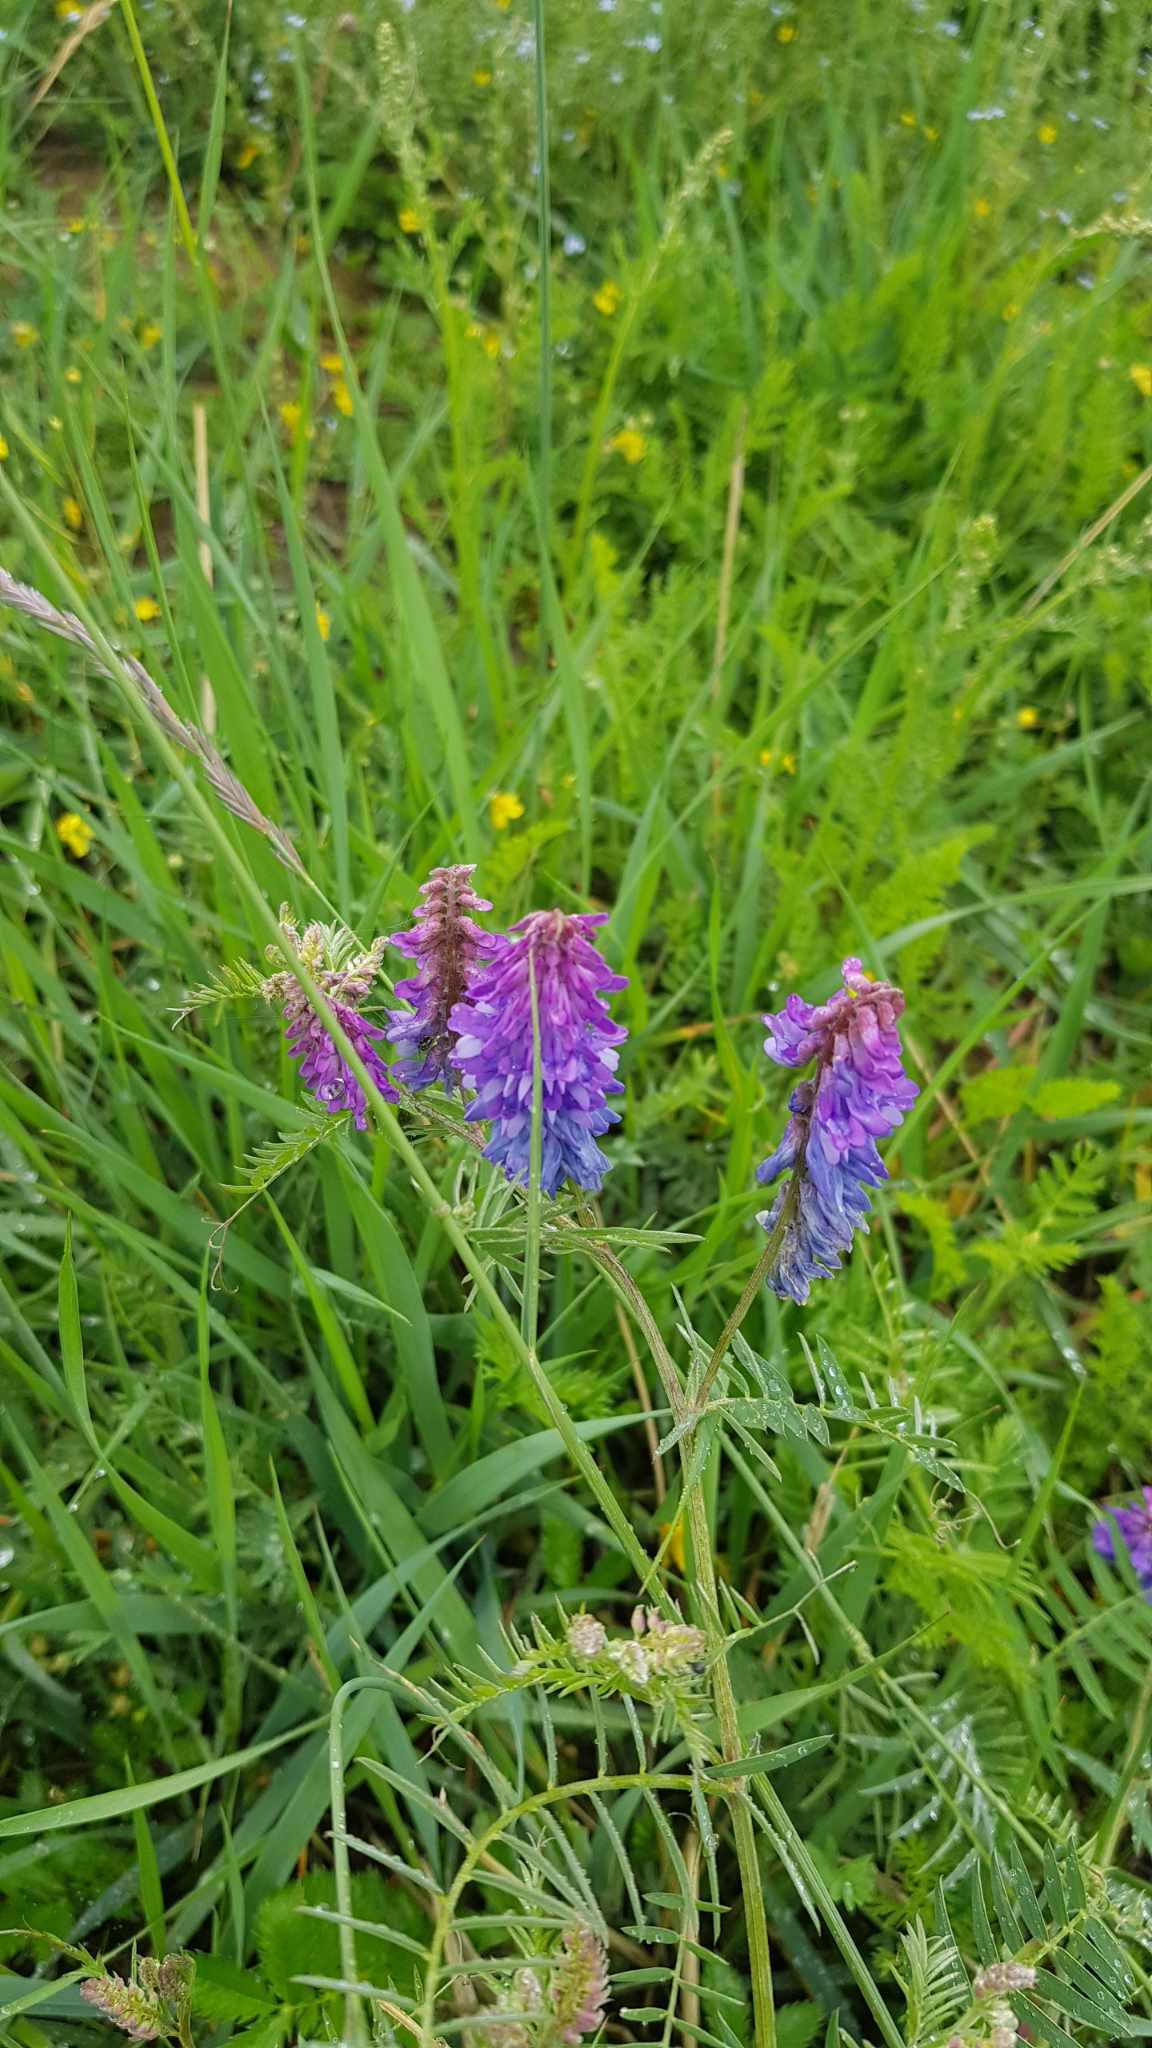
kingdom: Plantae
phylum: Tracheophyta
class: Magnoliopsida
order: Fabales
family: Fabaceae
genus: Vicia
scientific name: Vicia cracca
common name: Bird vetch
